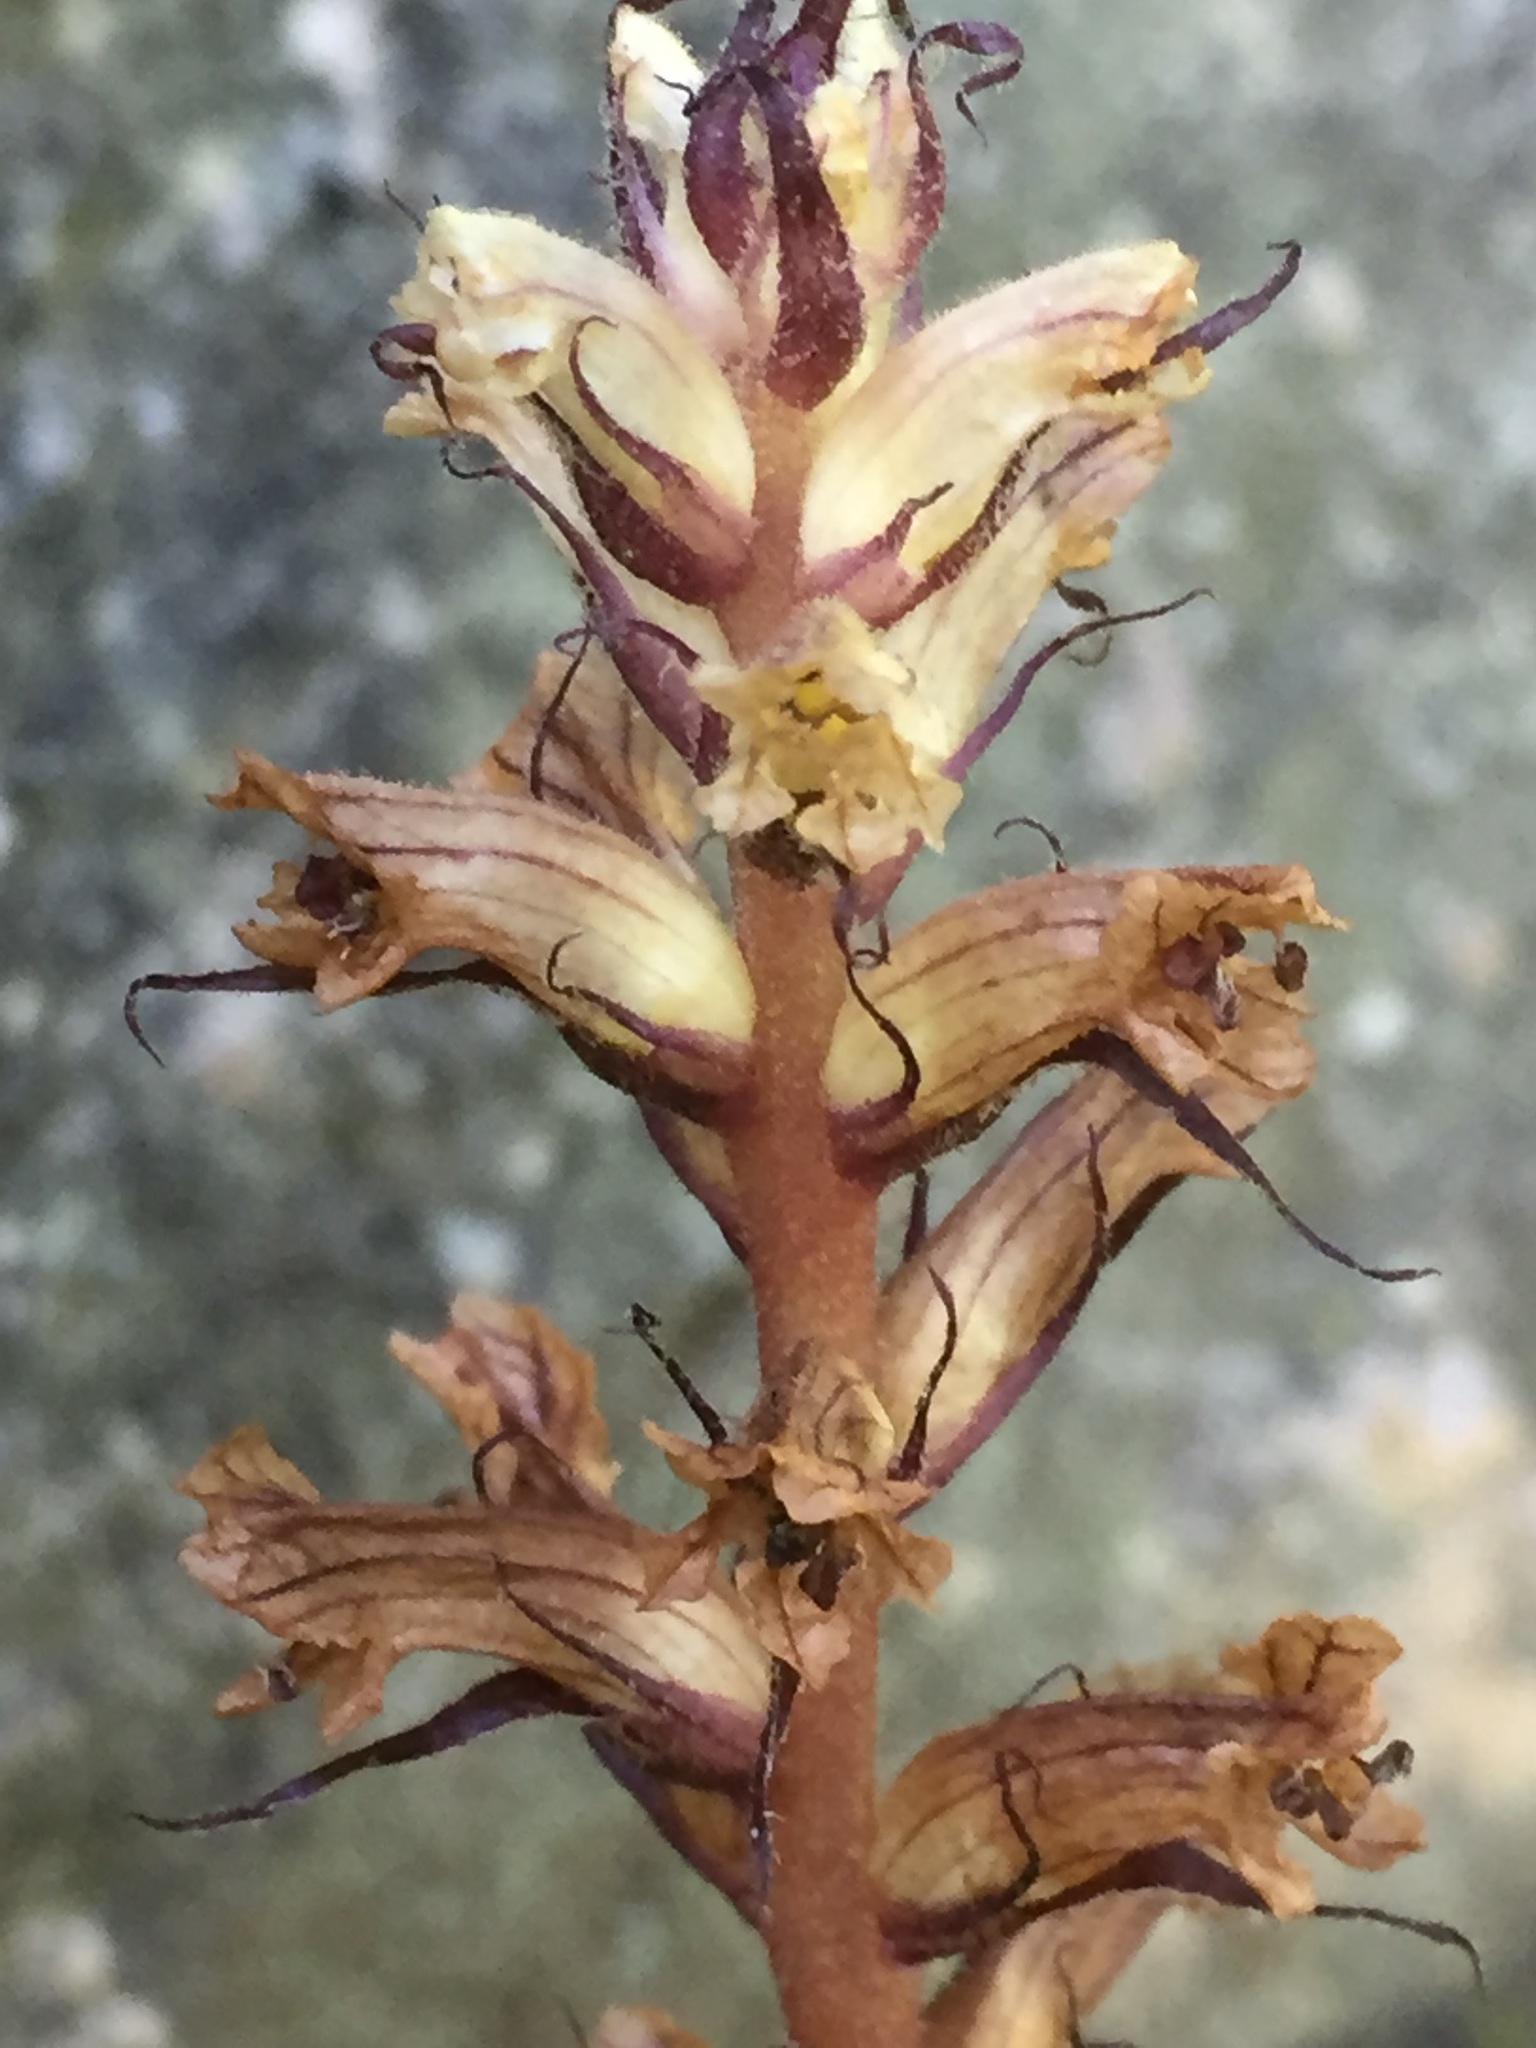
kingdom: Plantae
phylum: Tracheophyta
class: Magnoliopsida
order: Lamiales
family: Orobanchaceae
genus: Orobanche
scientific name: Orobanche hederae
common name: Ivy broomrape
